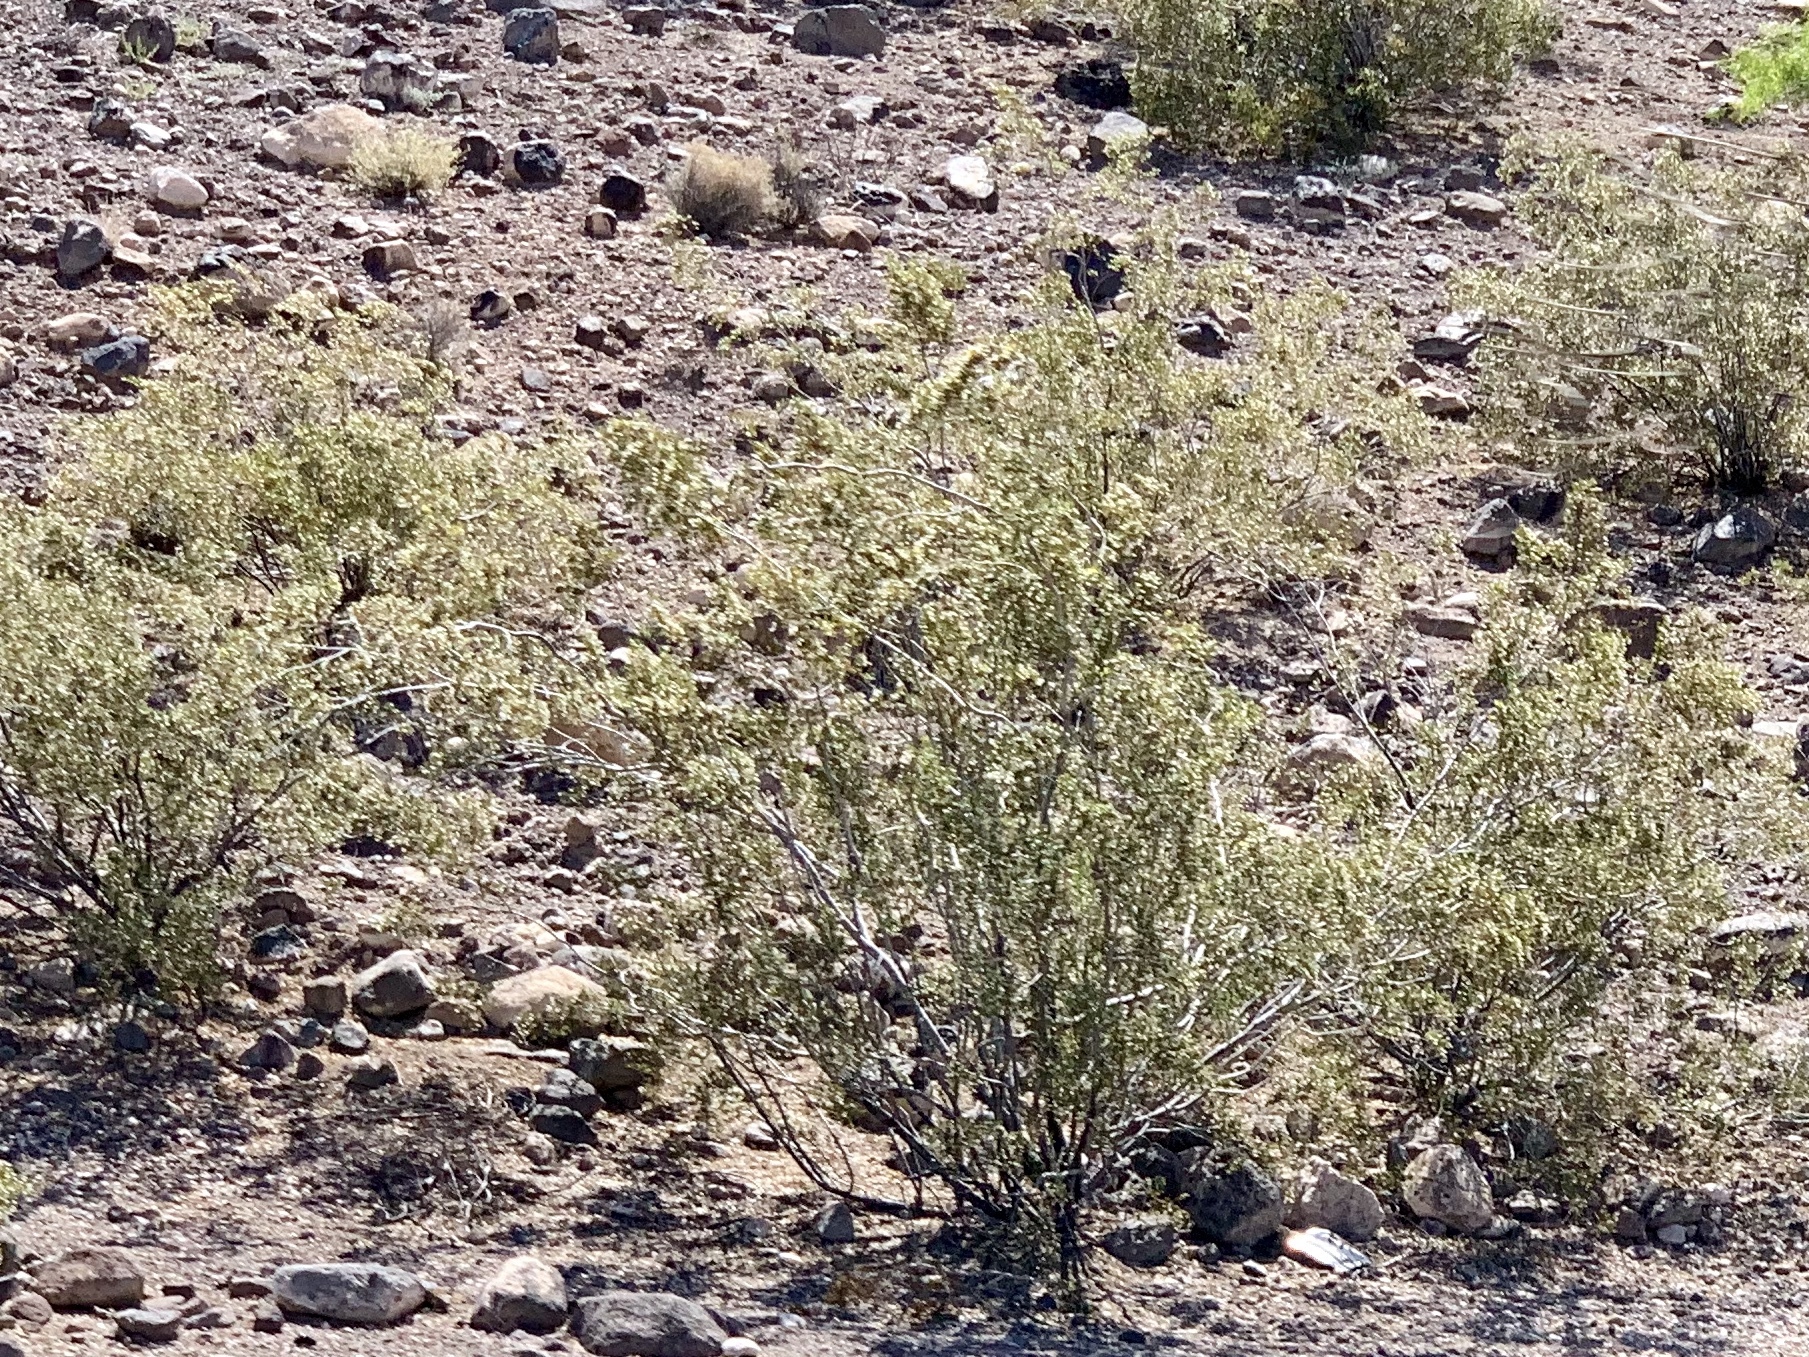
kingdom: Plantae
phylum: Tracheophyta
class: Magnoliopsida
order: Zygophyllales
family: Zygophyllaceae
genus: Larrea
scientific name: Larrea tridentata
